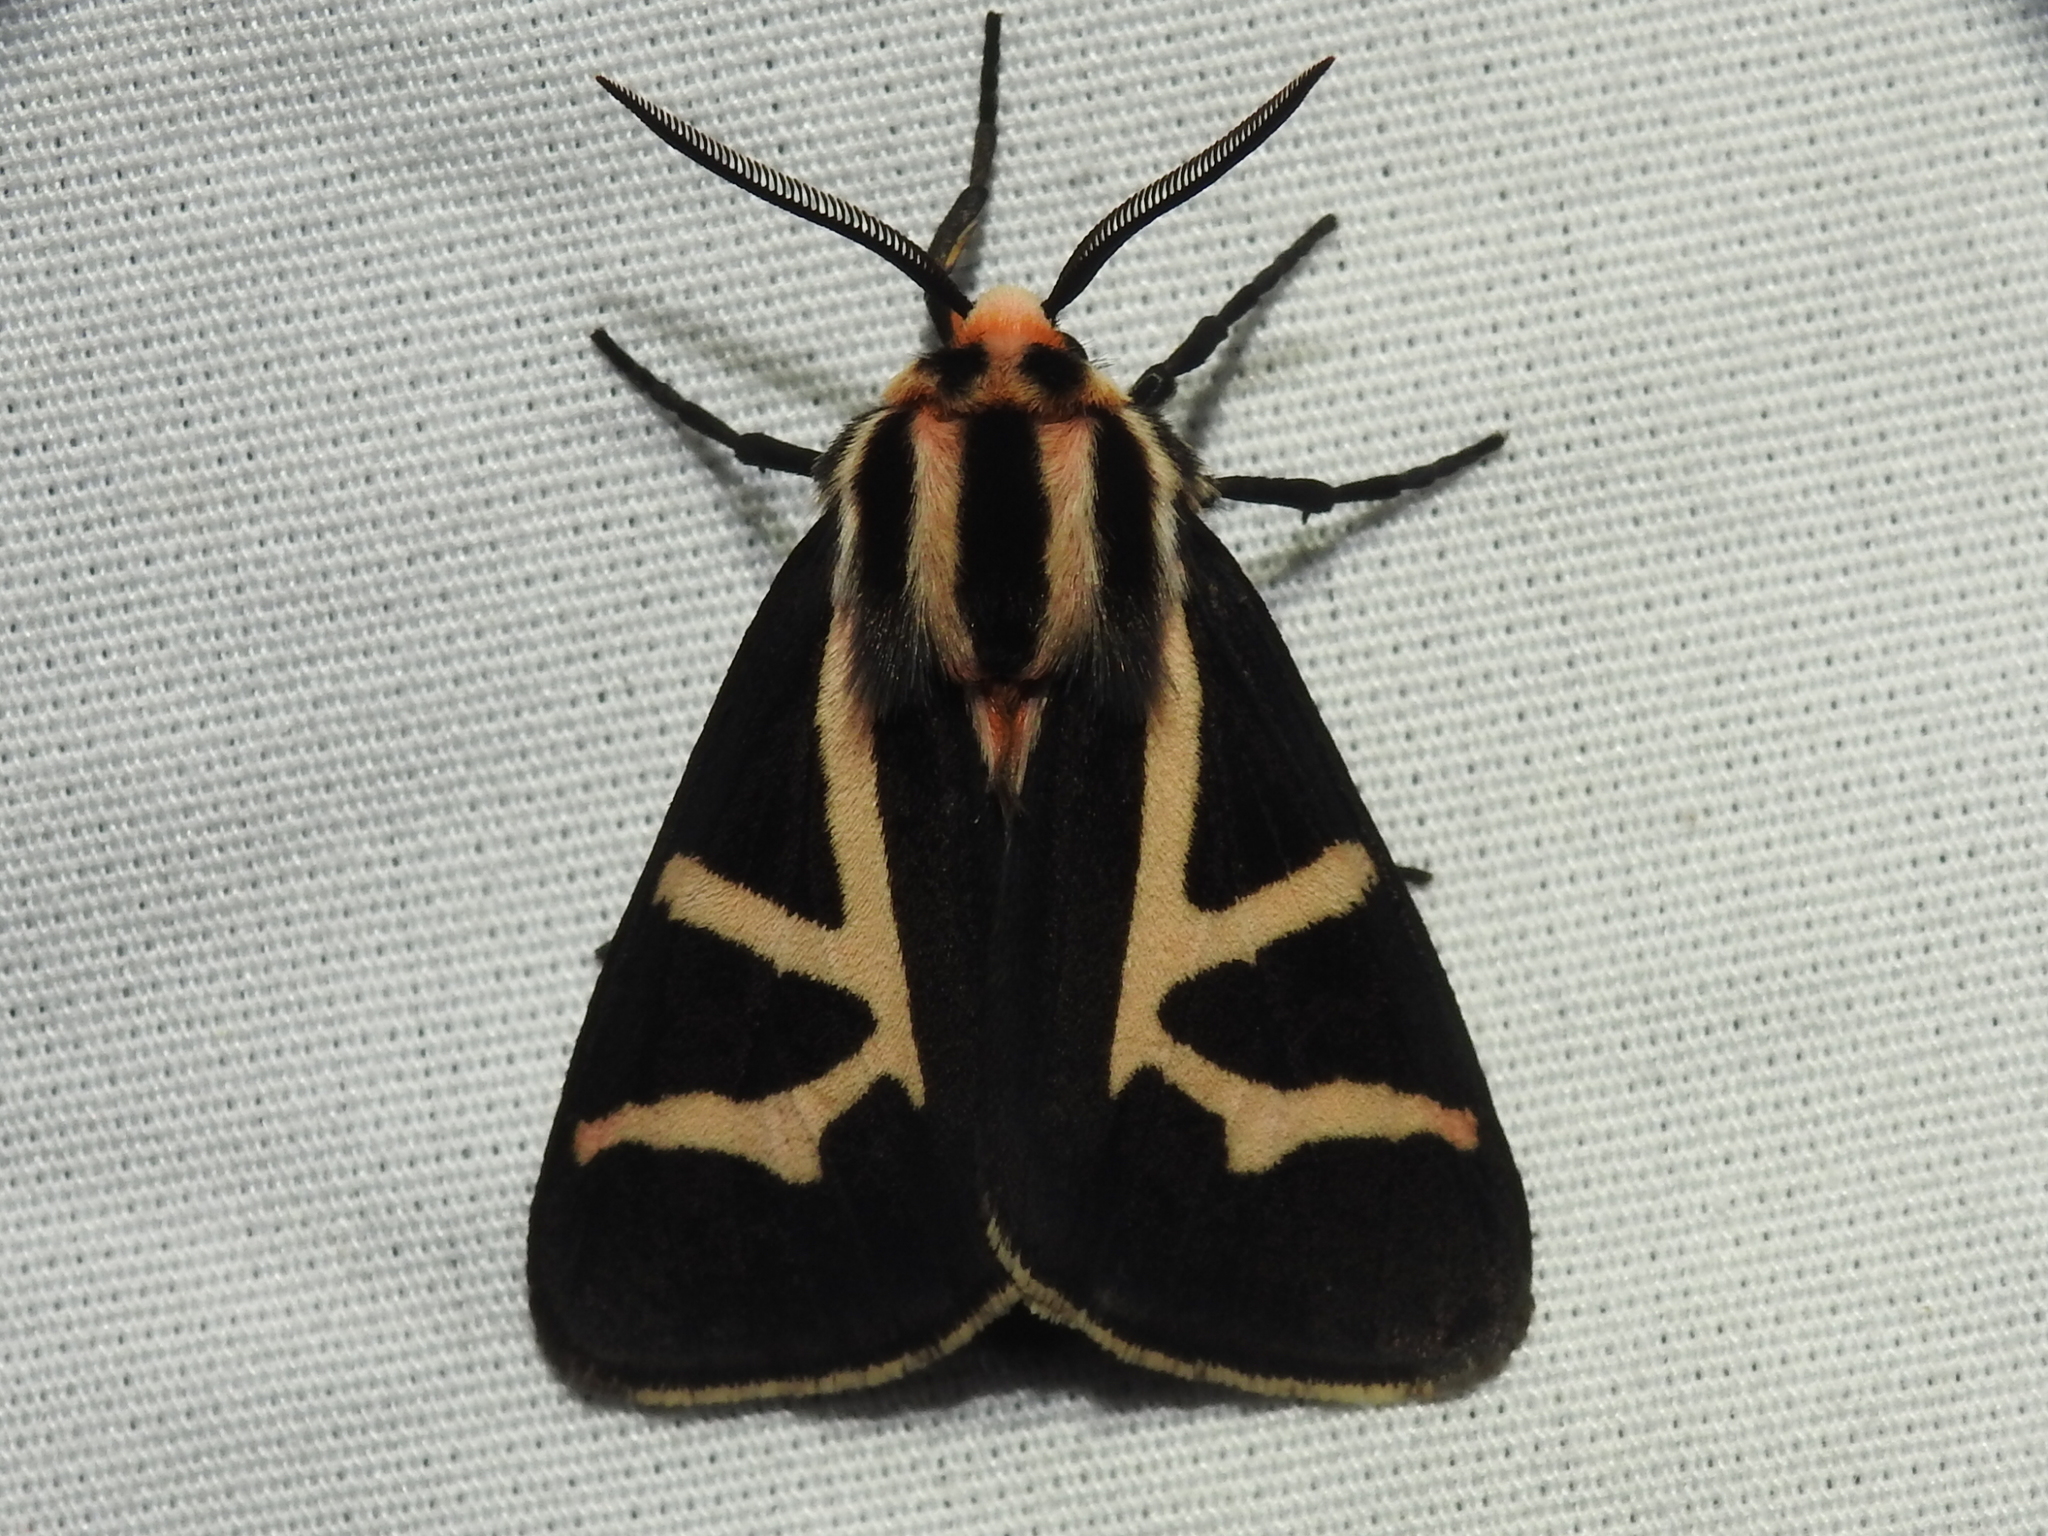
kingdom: Animalia
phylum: Arthropoda
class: Insecta
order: Lepidoptera
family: Erebidae
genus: Apantesis
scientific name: Apantesis
